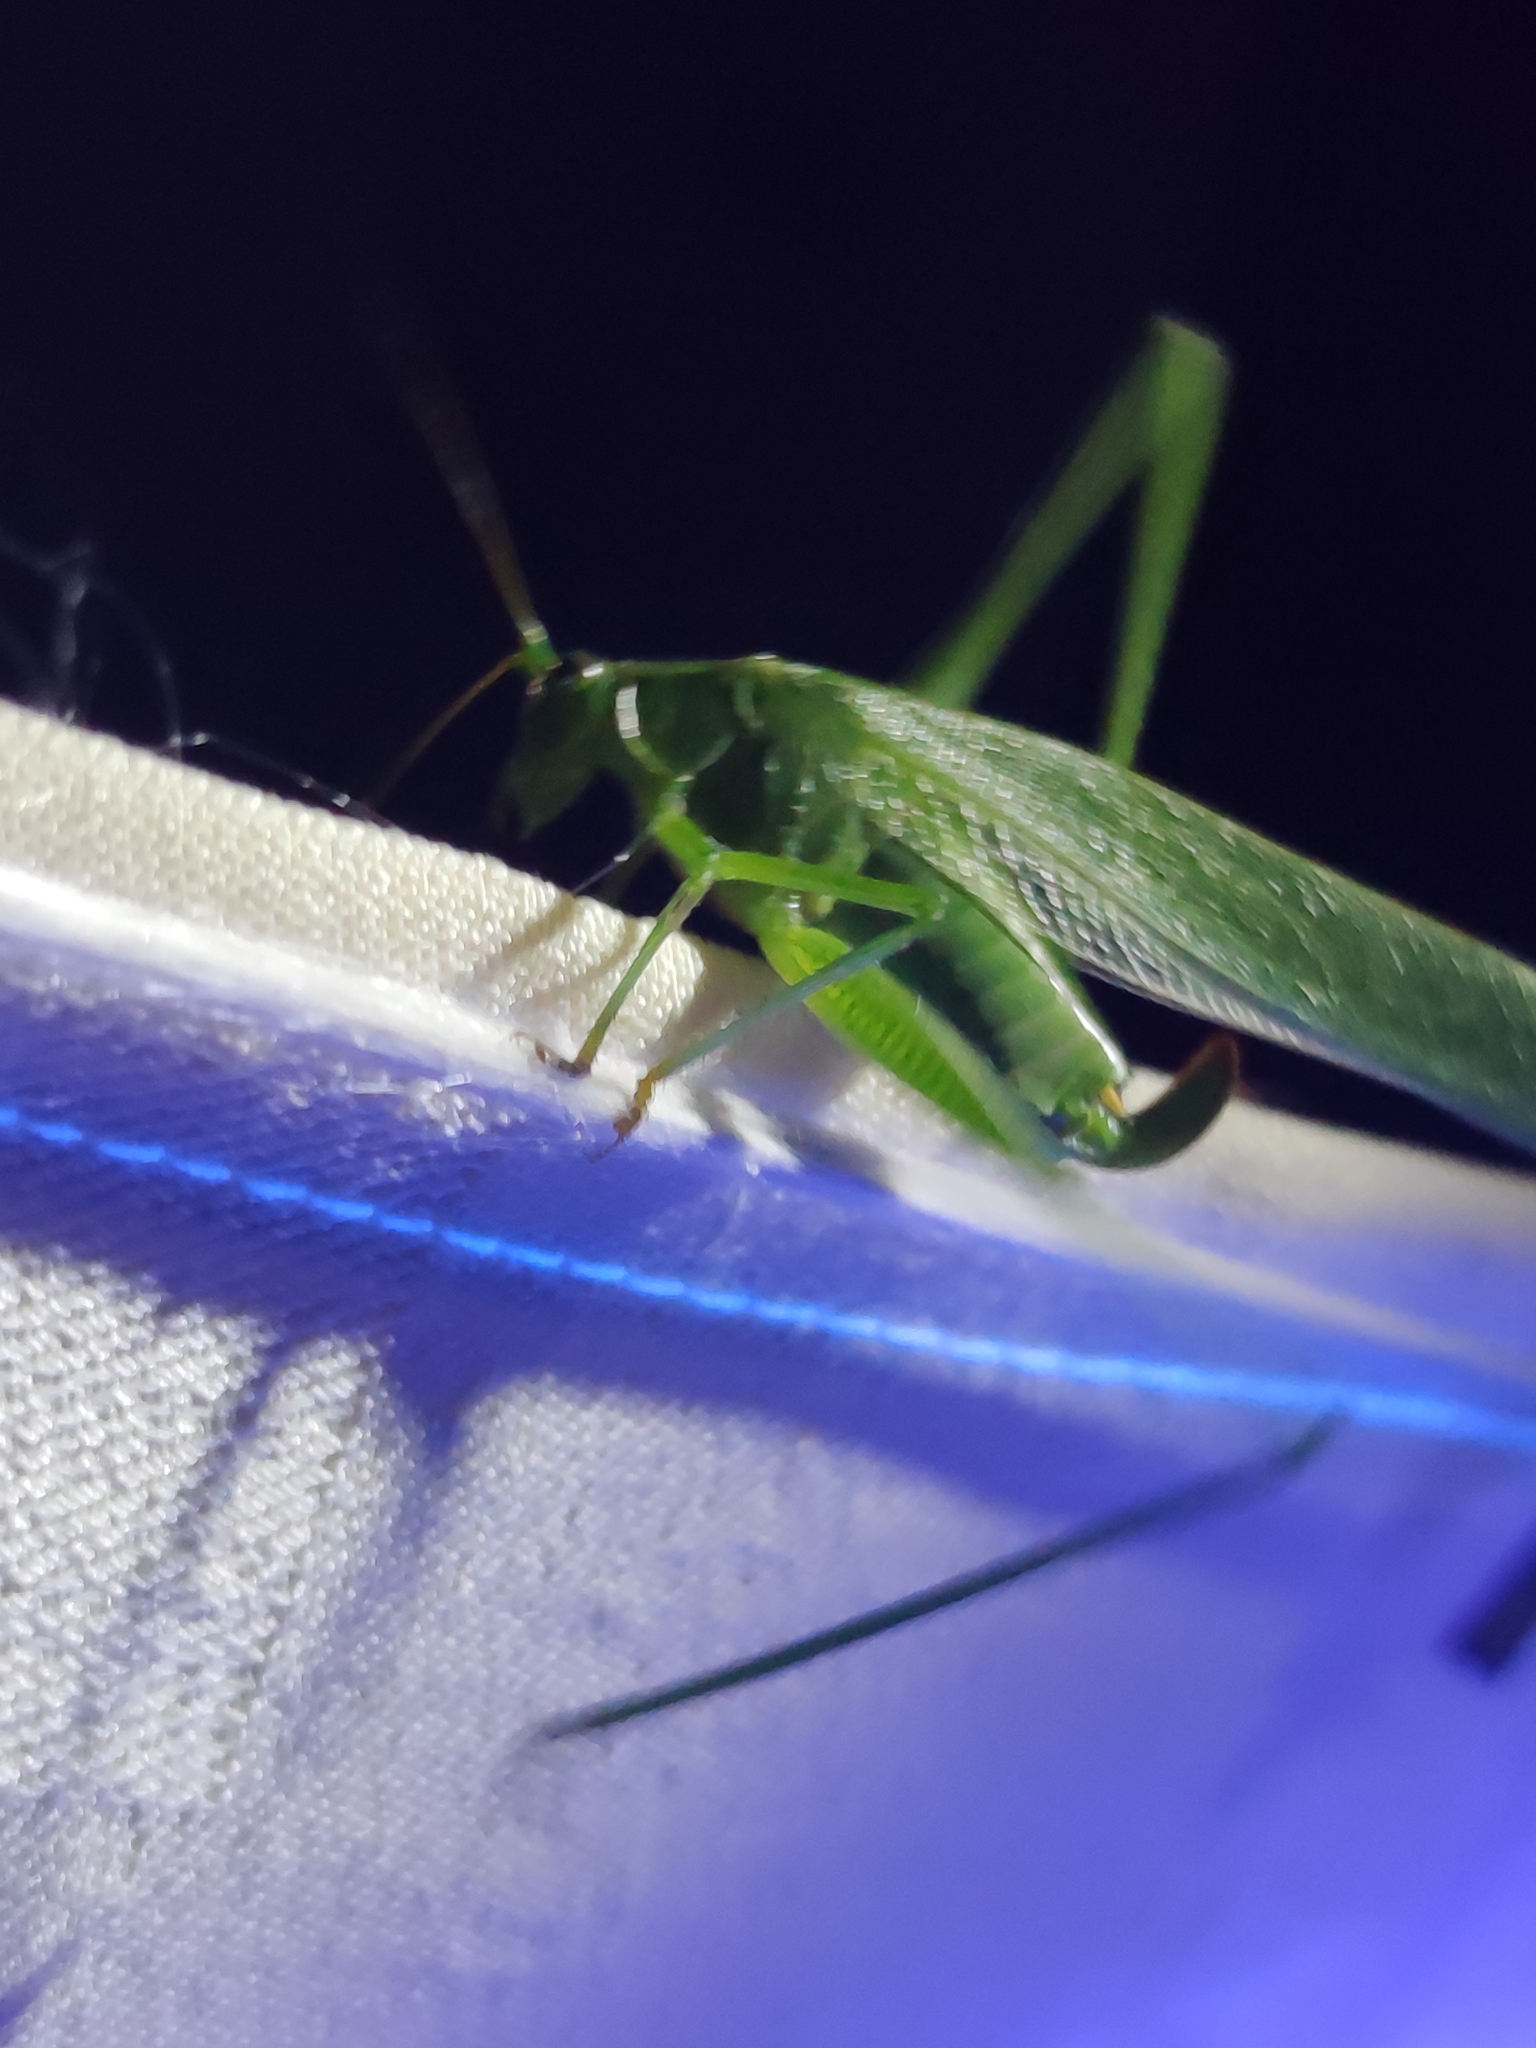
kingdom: Animalia
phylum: Arthropoda
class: Insecta
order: Orthoptera
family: Tettigoniidae
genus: Scudderia
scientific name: Scudderia mexicana
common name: Mexican bush katydid
